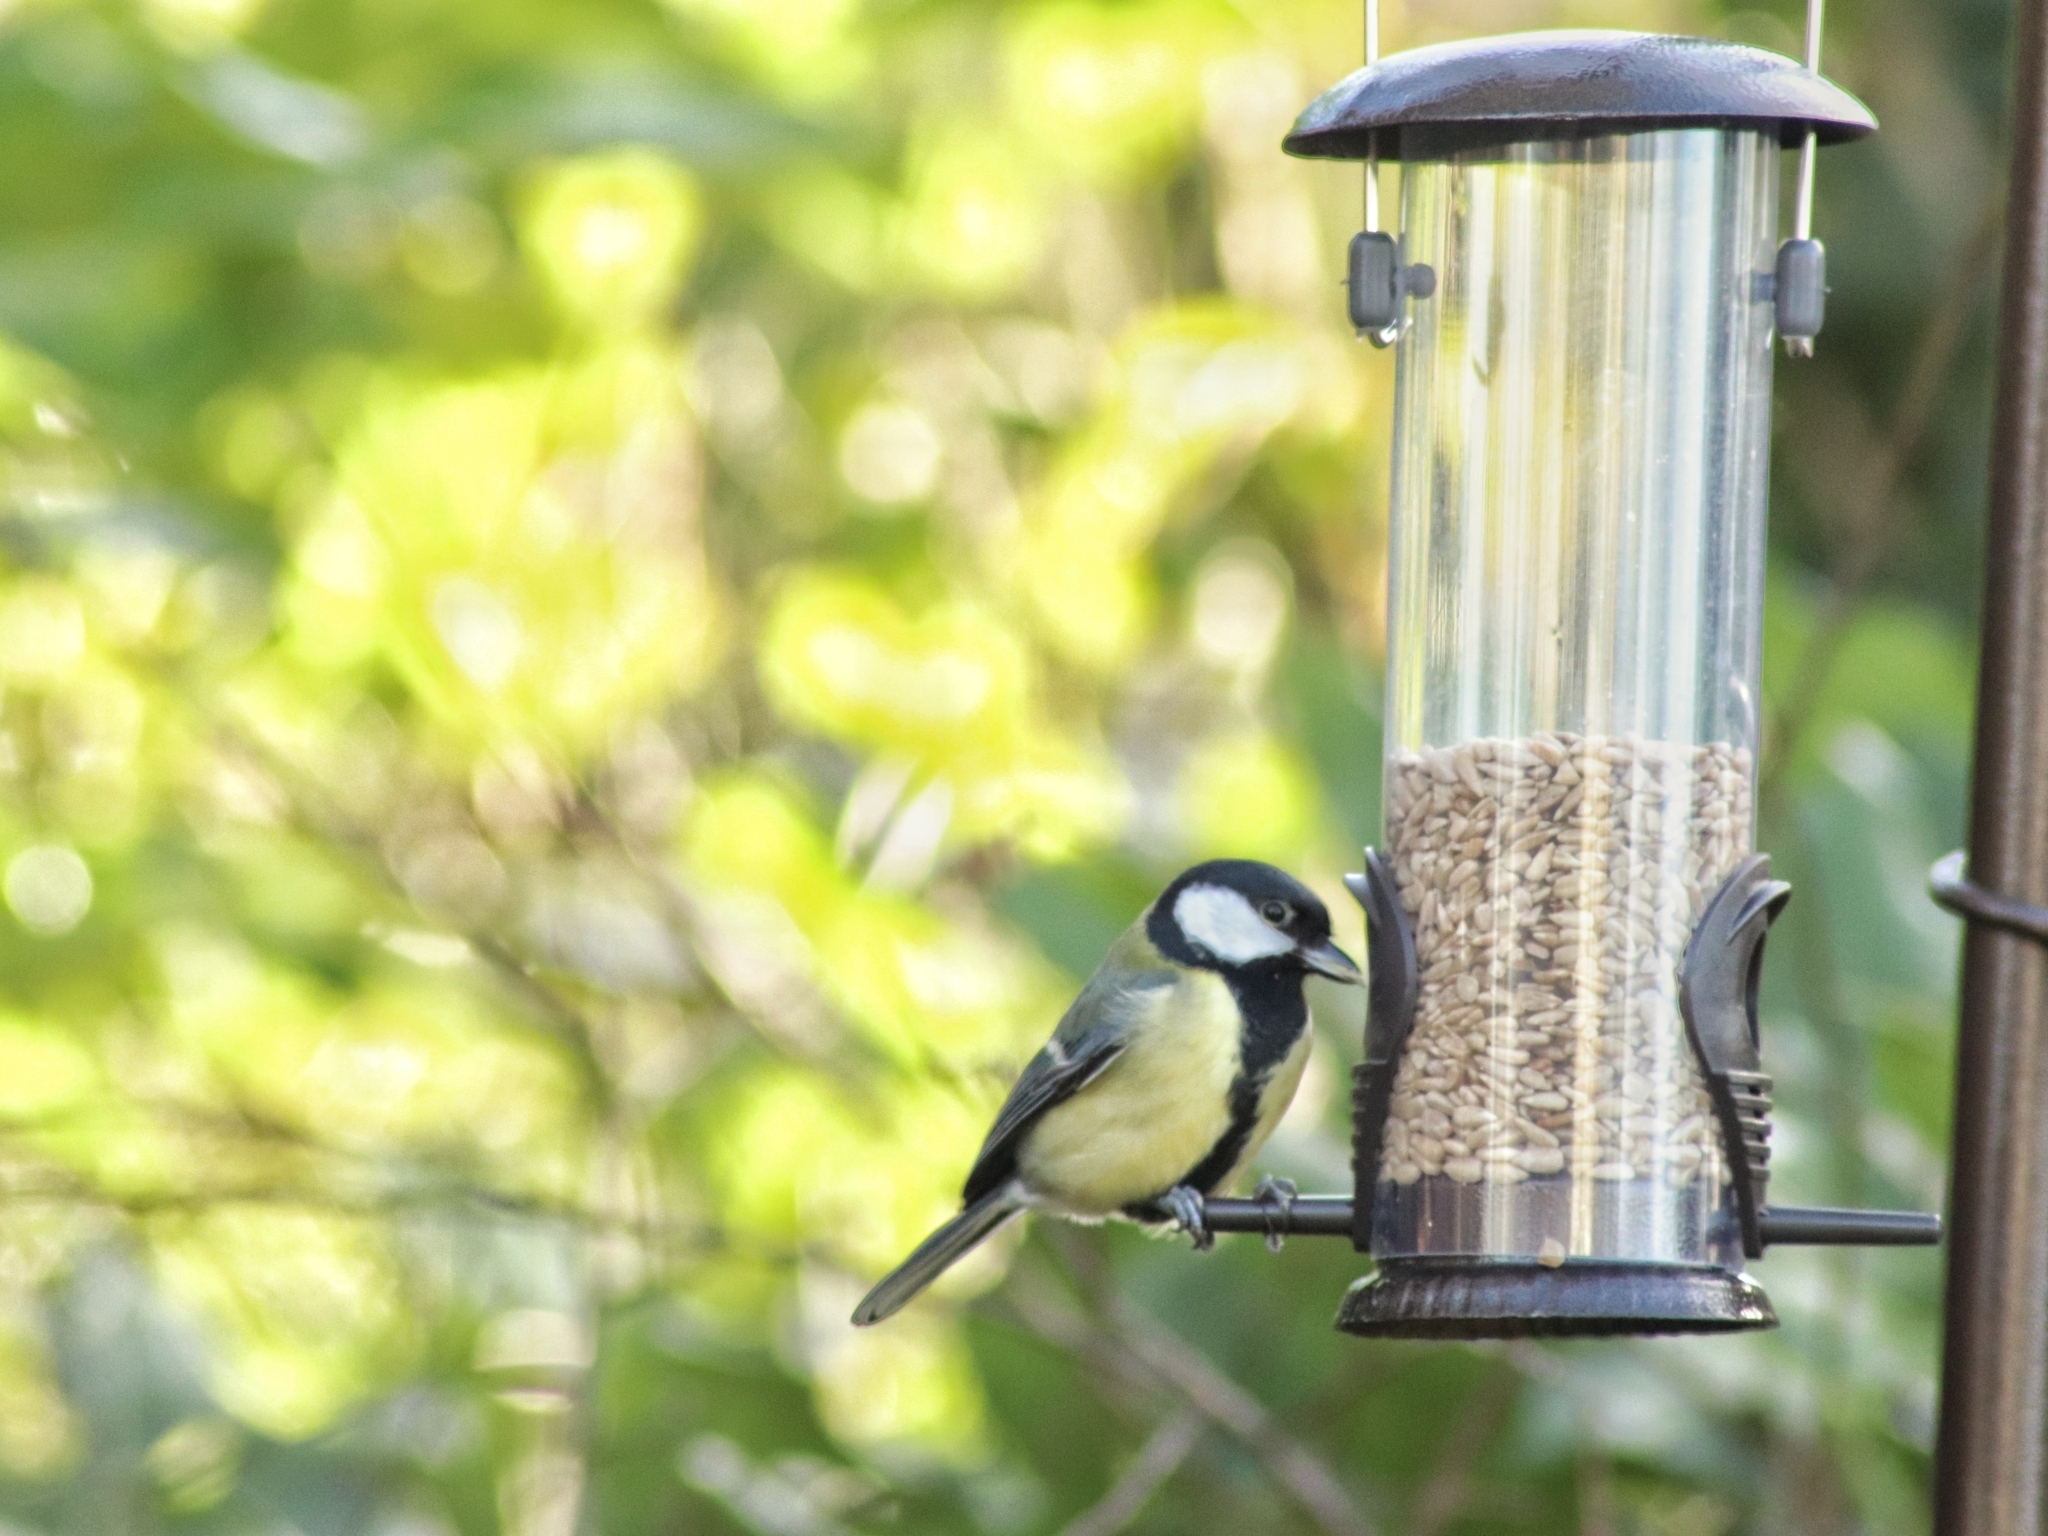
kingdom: Animalia
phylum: Chordata
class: Aves
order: Passeriformes
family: Paridae
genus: Parus
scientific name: Parus major
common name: Great tit
